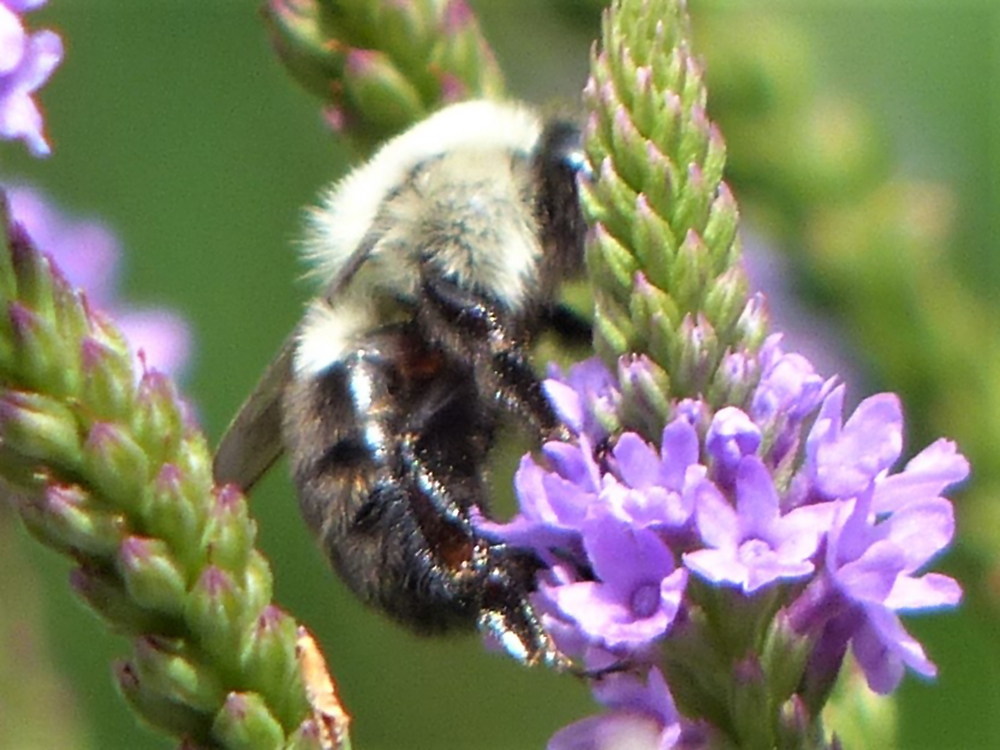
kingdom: Animalia
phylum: Arthropoda
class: Insecta
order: Hymenoptera
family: Apidae
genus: Bombus
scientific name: Bombus impatiens
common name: Common eastern bumble bee
